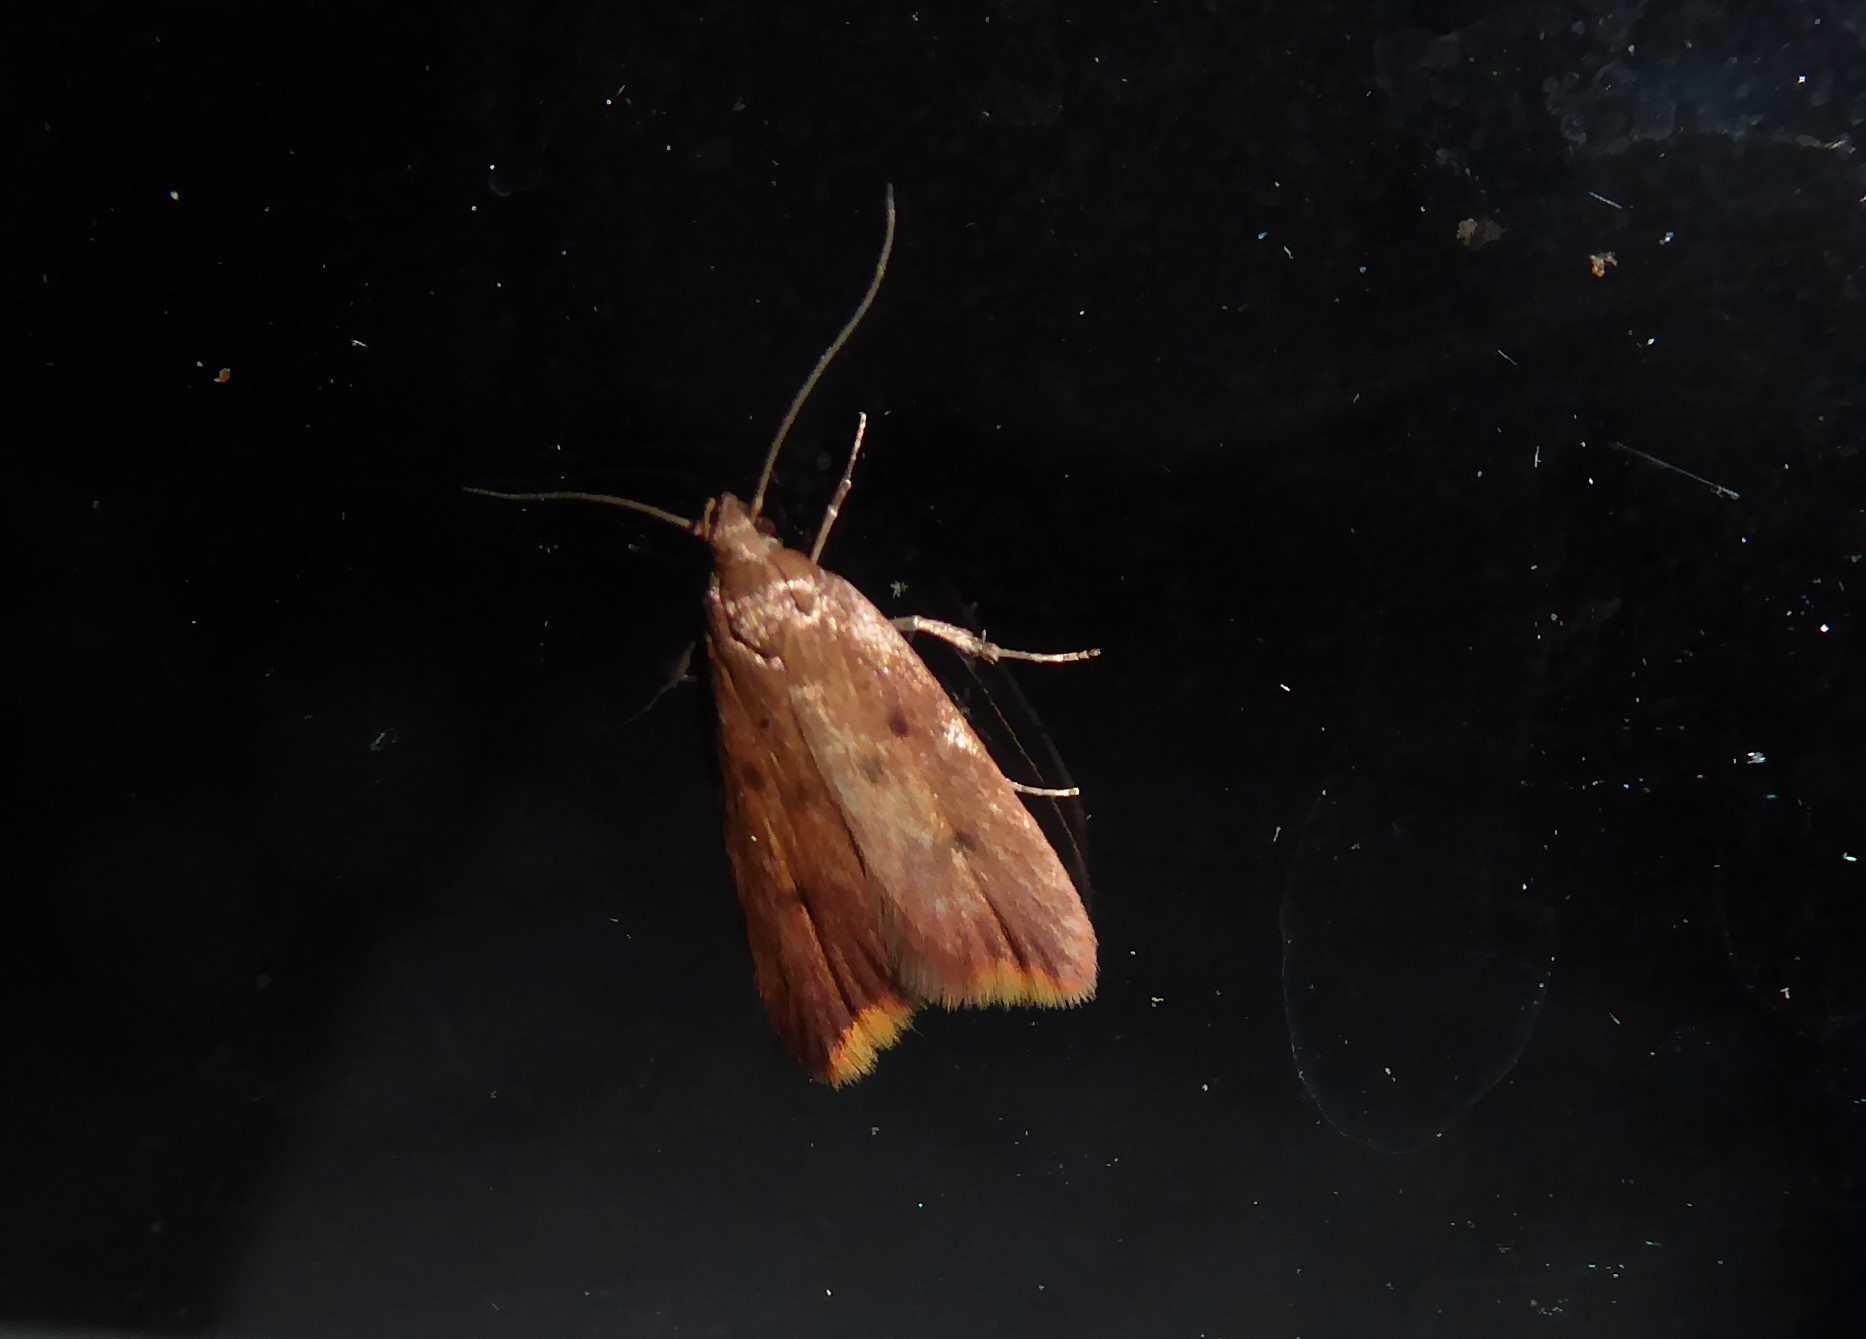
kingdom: Animalia
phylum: Arthropoda
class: Insecta
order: Lepidoptera
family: Oecophoridae
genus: Tachystola
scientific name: Tachystola acroxantha
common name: Ruddy streak
